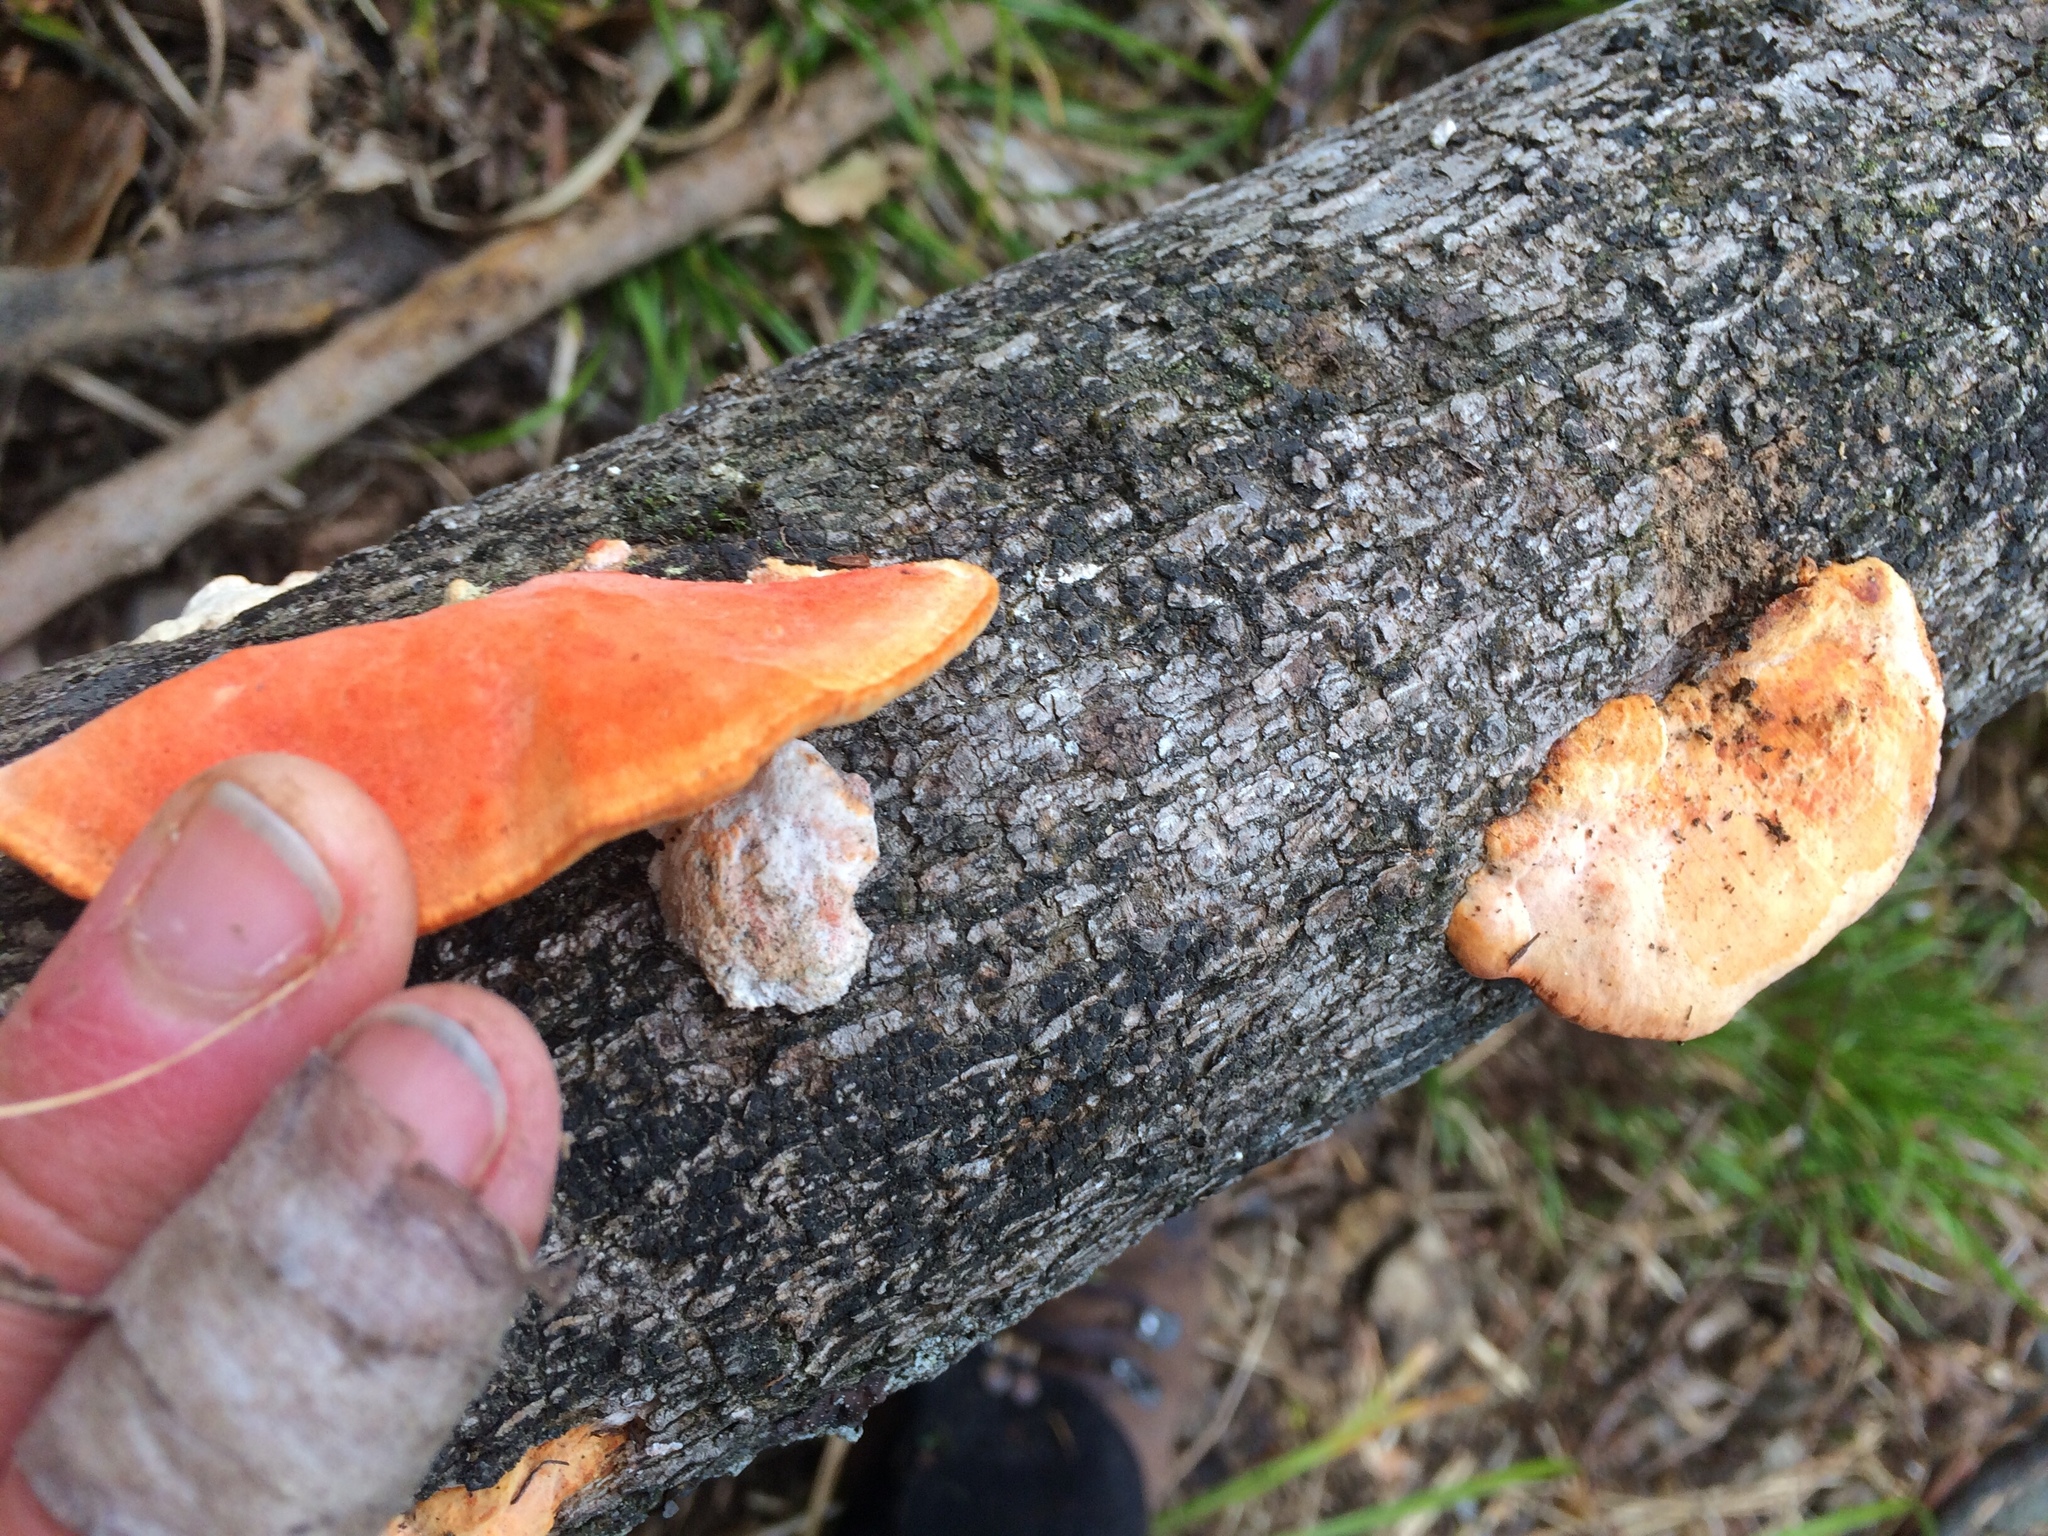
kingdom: Fungi
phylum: Basidiomycota
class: Agaricomycetes
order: Polyporales
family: Polyporaceae
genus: Trametes
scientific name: Trametes coccinea
